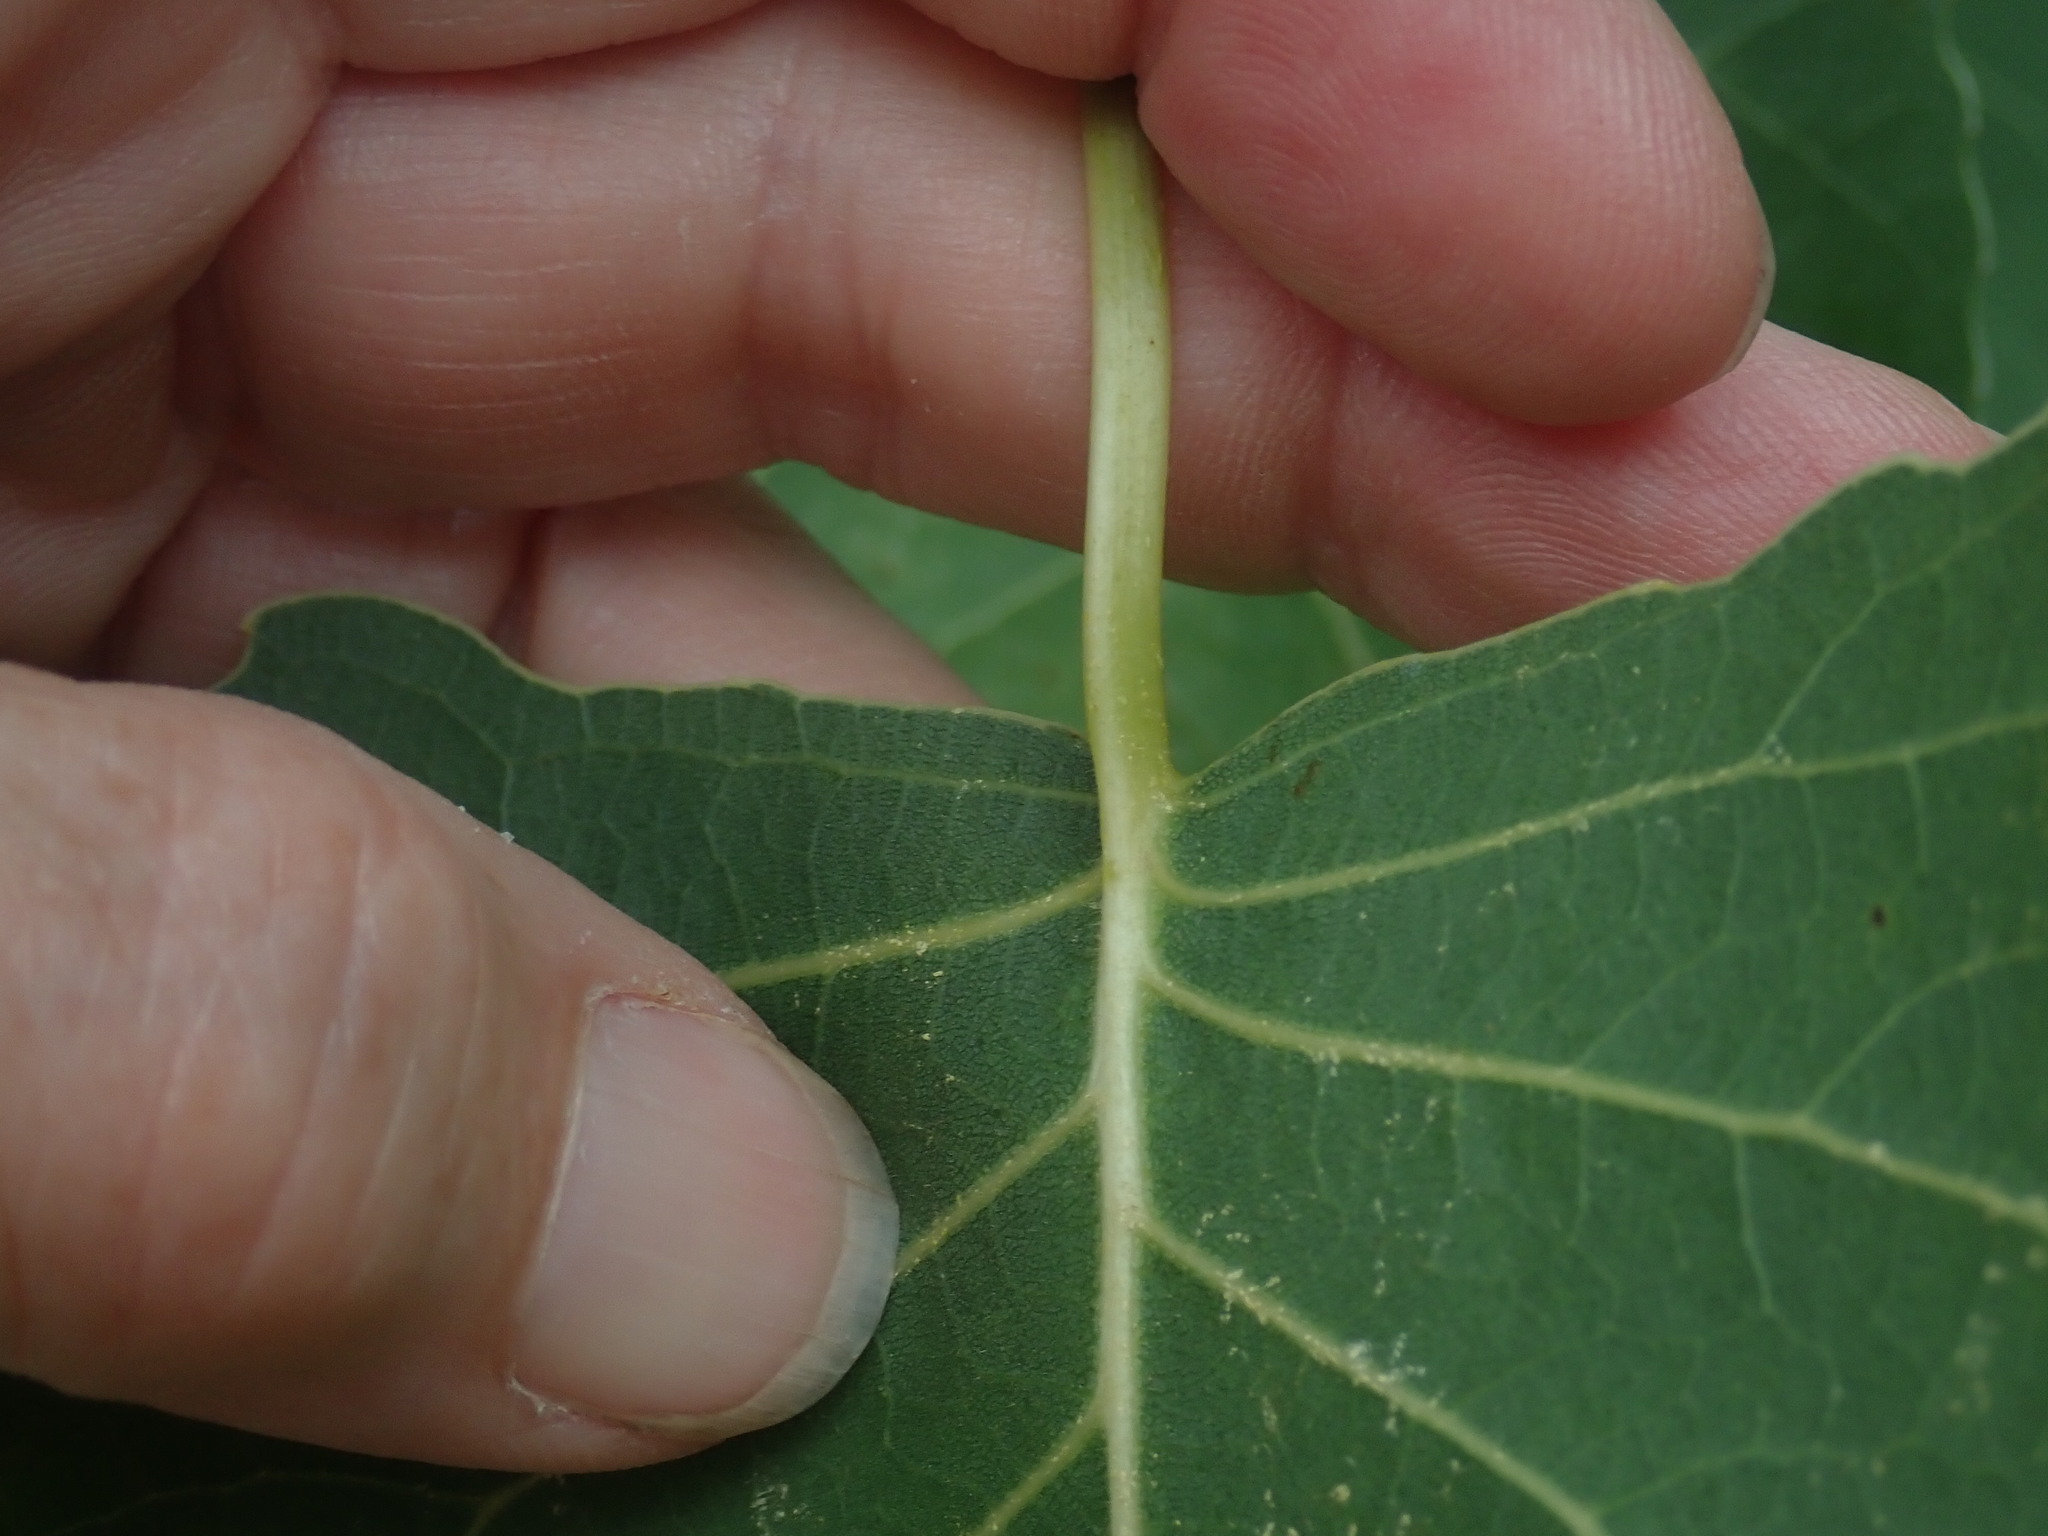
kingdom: Plantae
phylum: Tracheophyta
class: Magnoliopsida
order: Malpighiales
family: Salicaceae
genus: Populus
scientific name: Populus deltoides
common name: Eastern cottonwood
